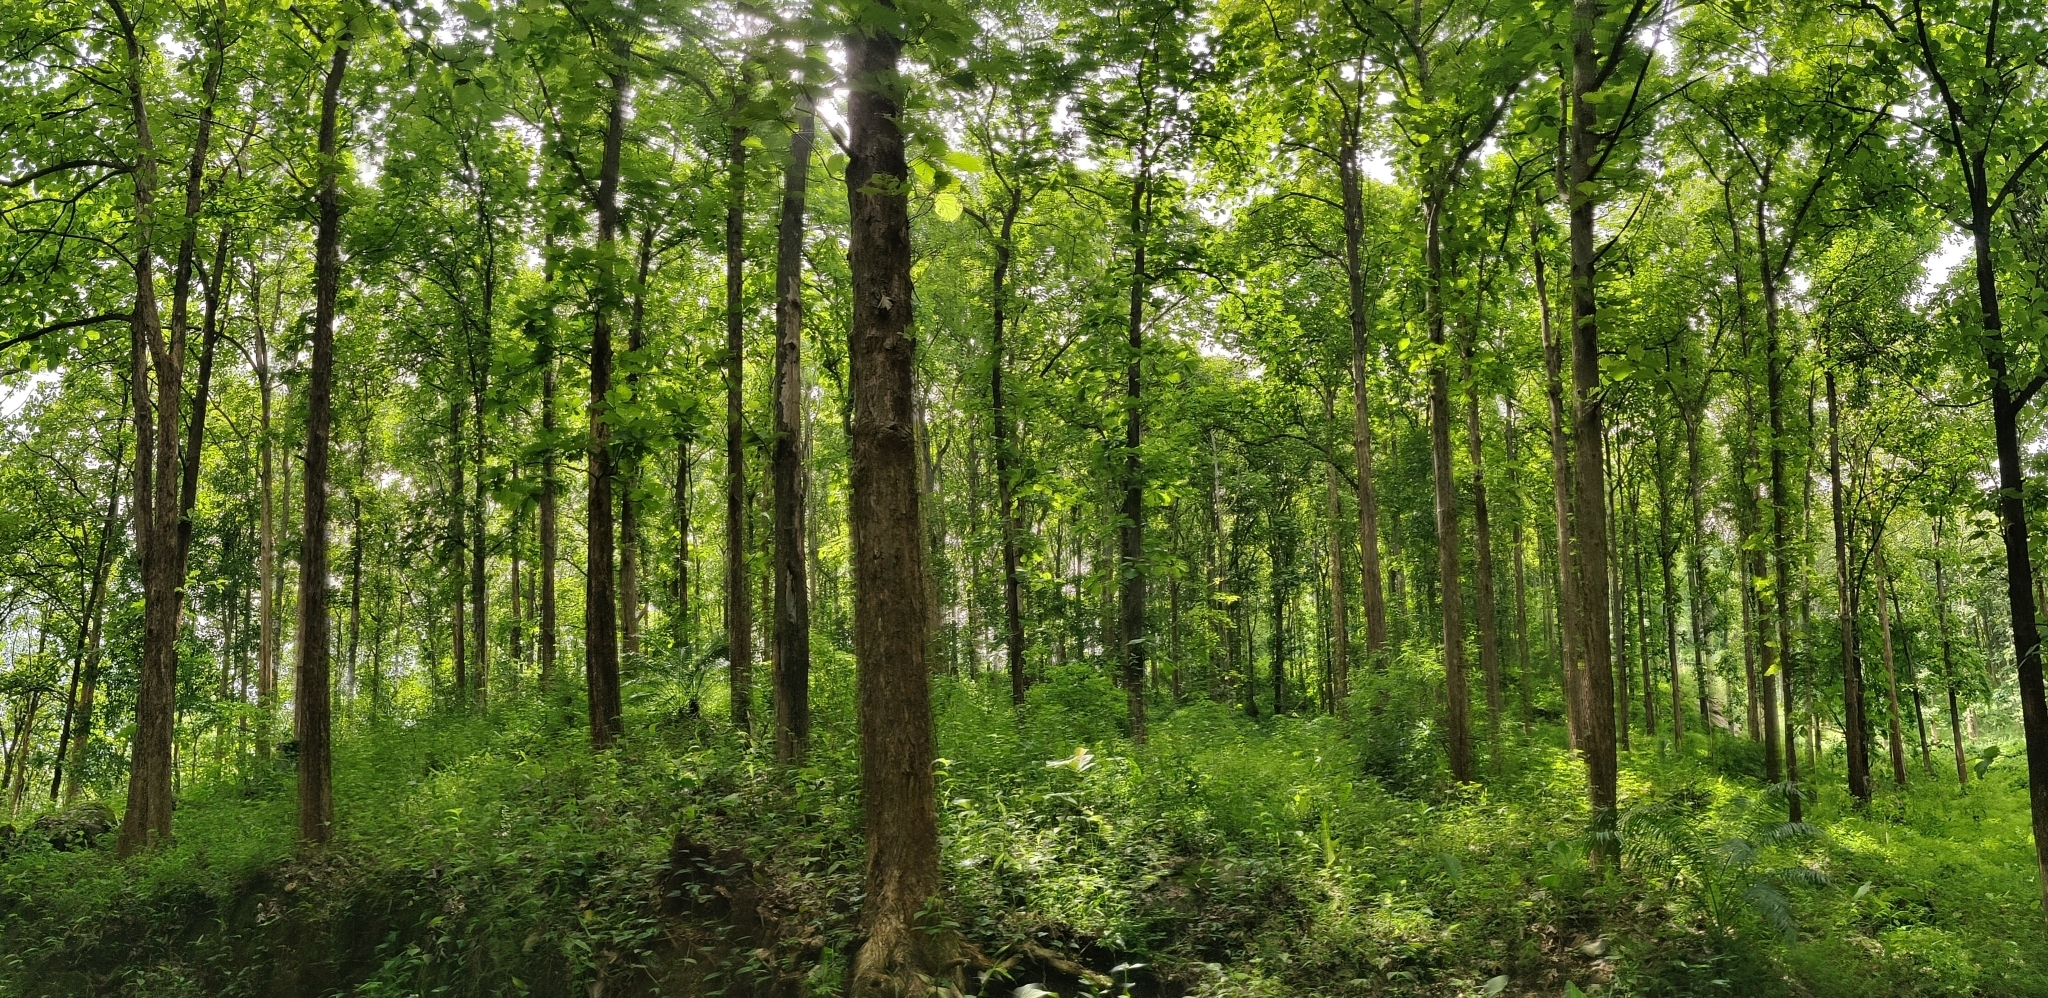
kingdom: Plantae
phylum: Tracheophyta
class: Magnoliopsida
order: Lamiales
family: Lamiaceae
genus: Tectona
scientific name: Tectona grandis
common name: Teak
